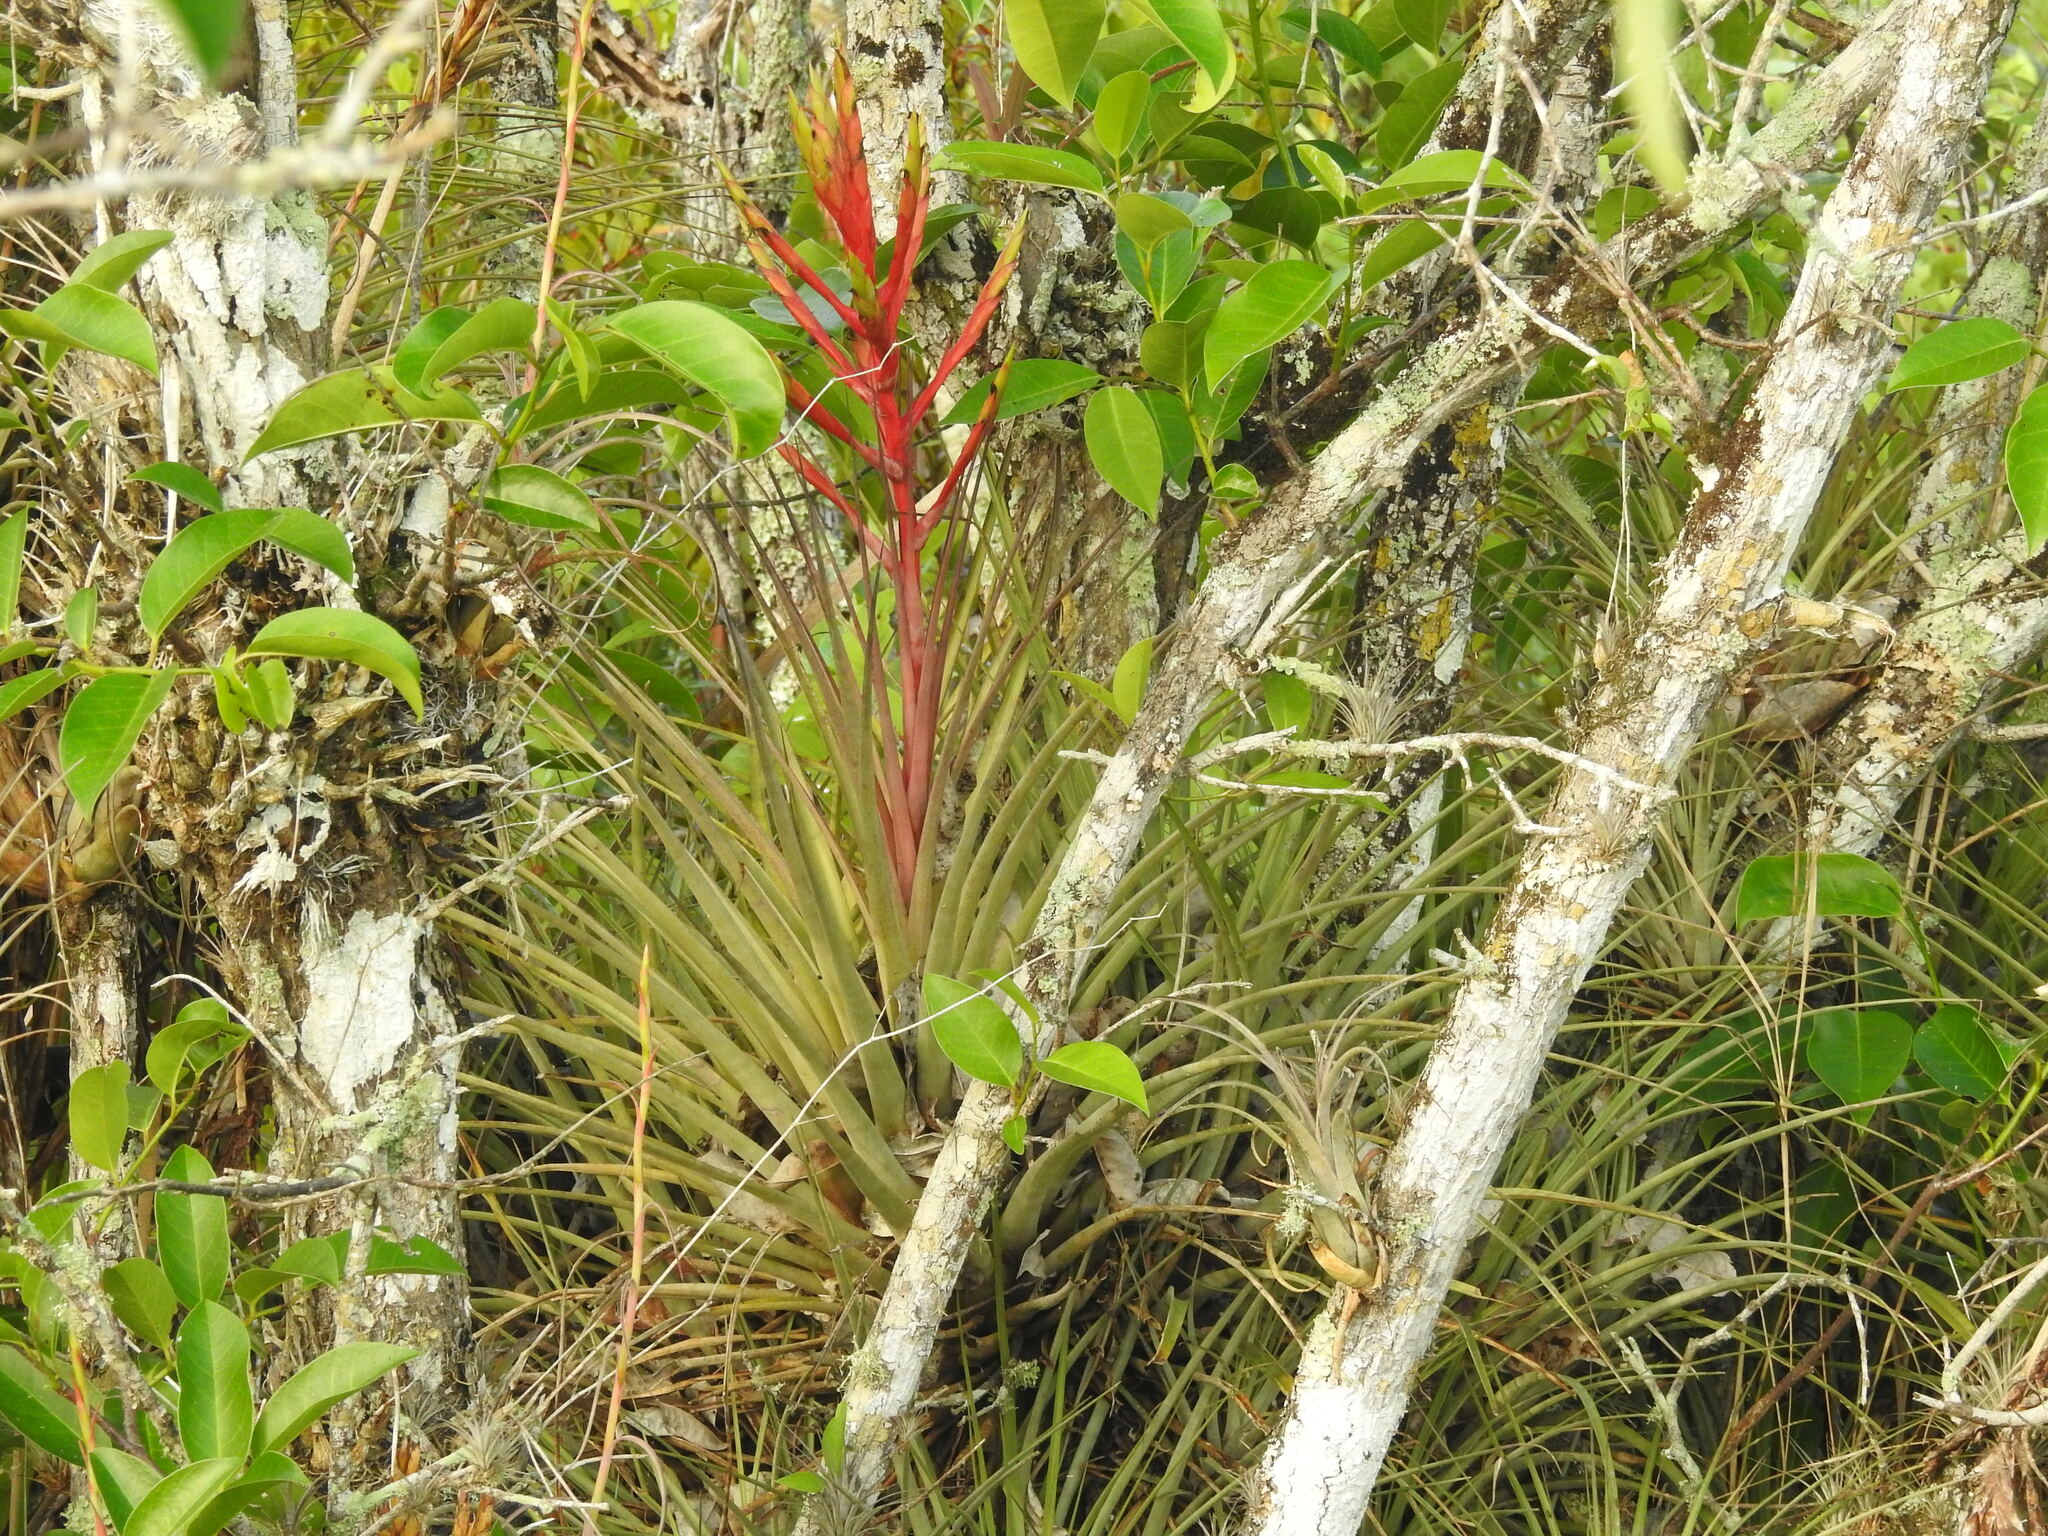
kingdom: Plantae
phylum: Tracheophyta
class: Liliopsida
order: Poales
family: Bromeliaceae
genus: Tillandsia
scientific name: Tillandsia fasciculata
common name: Giant airplant
